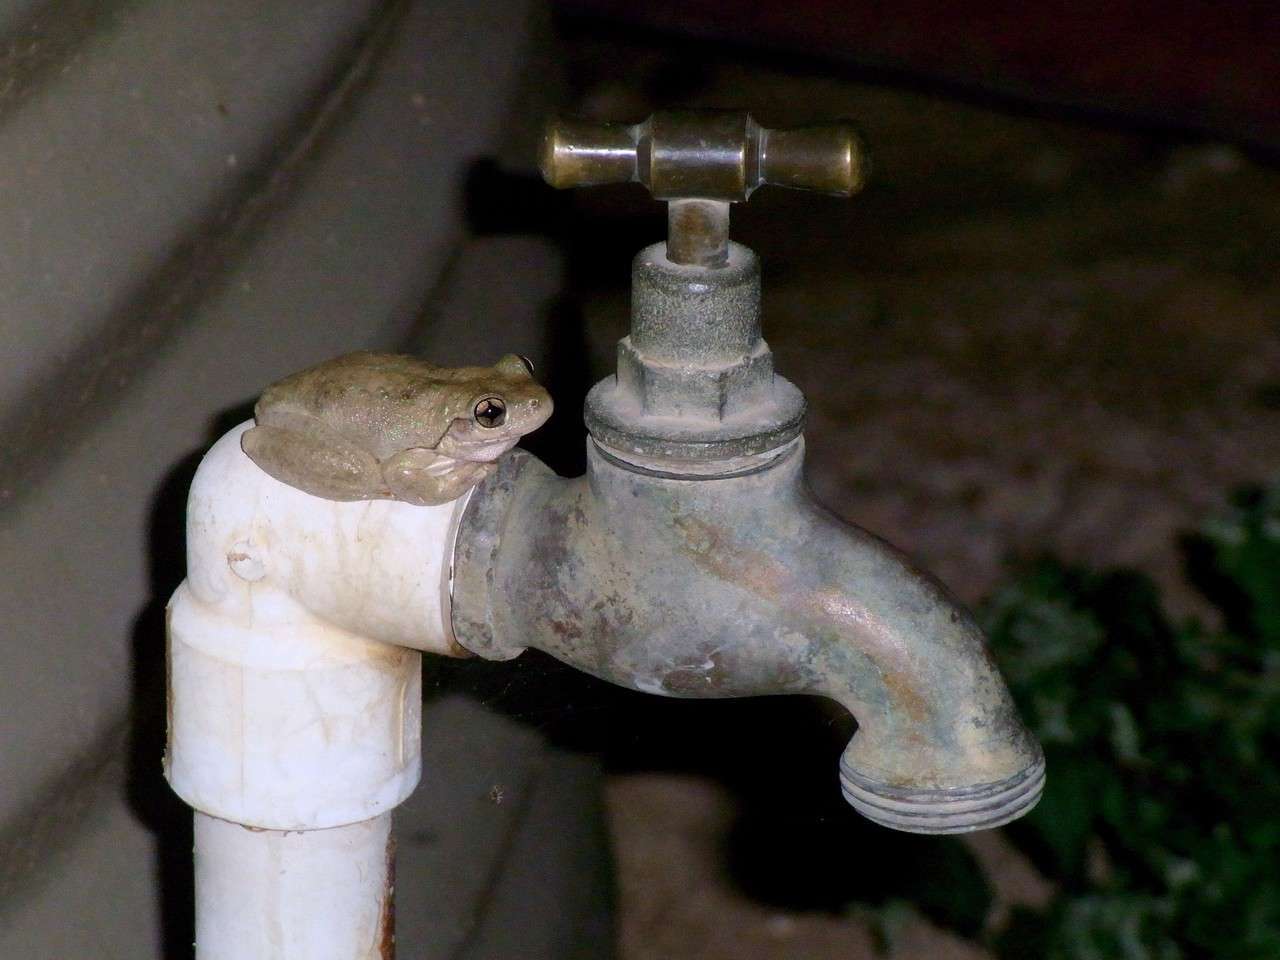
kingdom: Animalia
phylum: Chordata
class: Amphibia
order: Anura
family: Pelodryadidae
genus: Litoria
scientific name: Litoria peronii
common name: Emerald spotted treefrog
